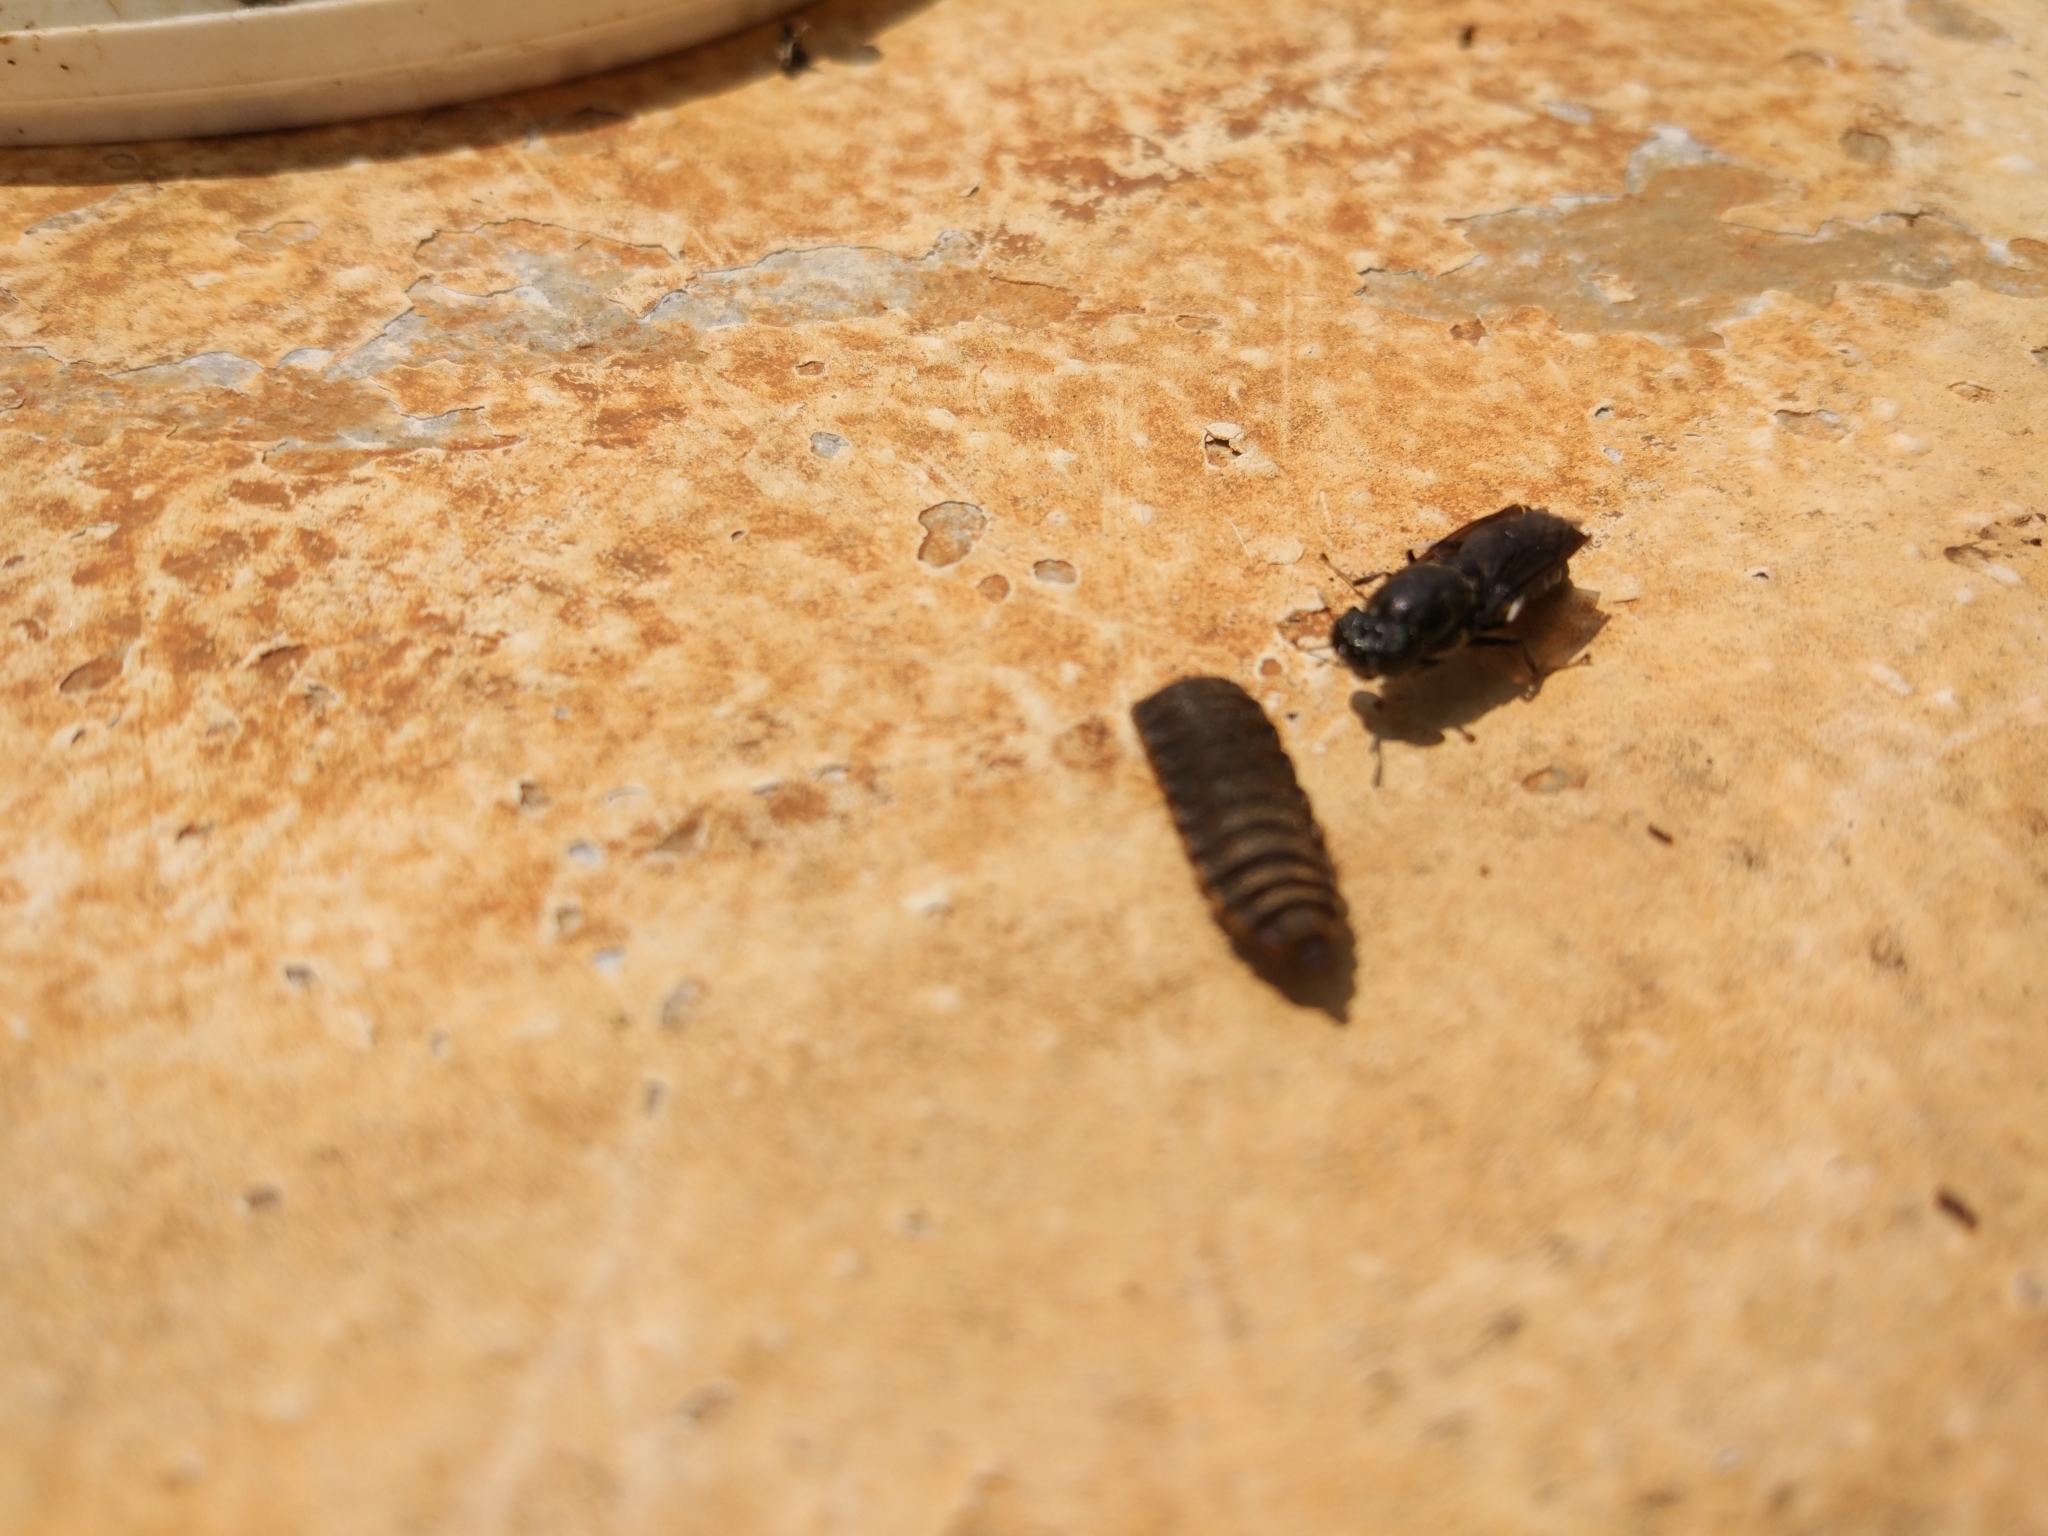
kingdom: Animalia
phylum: Arthropoda
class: Insecta
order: Diptera
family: Stratiomyidae
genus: Hermetia
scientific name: Hermetia illucens
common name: Black soldier fly
